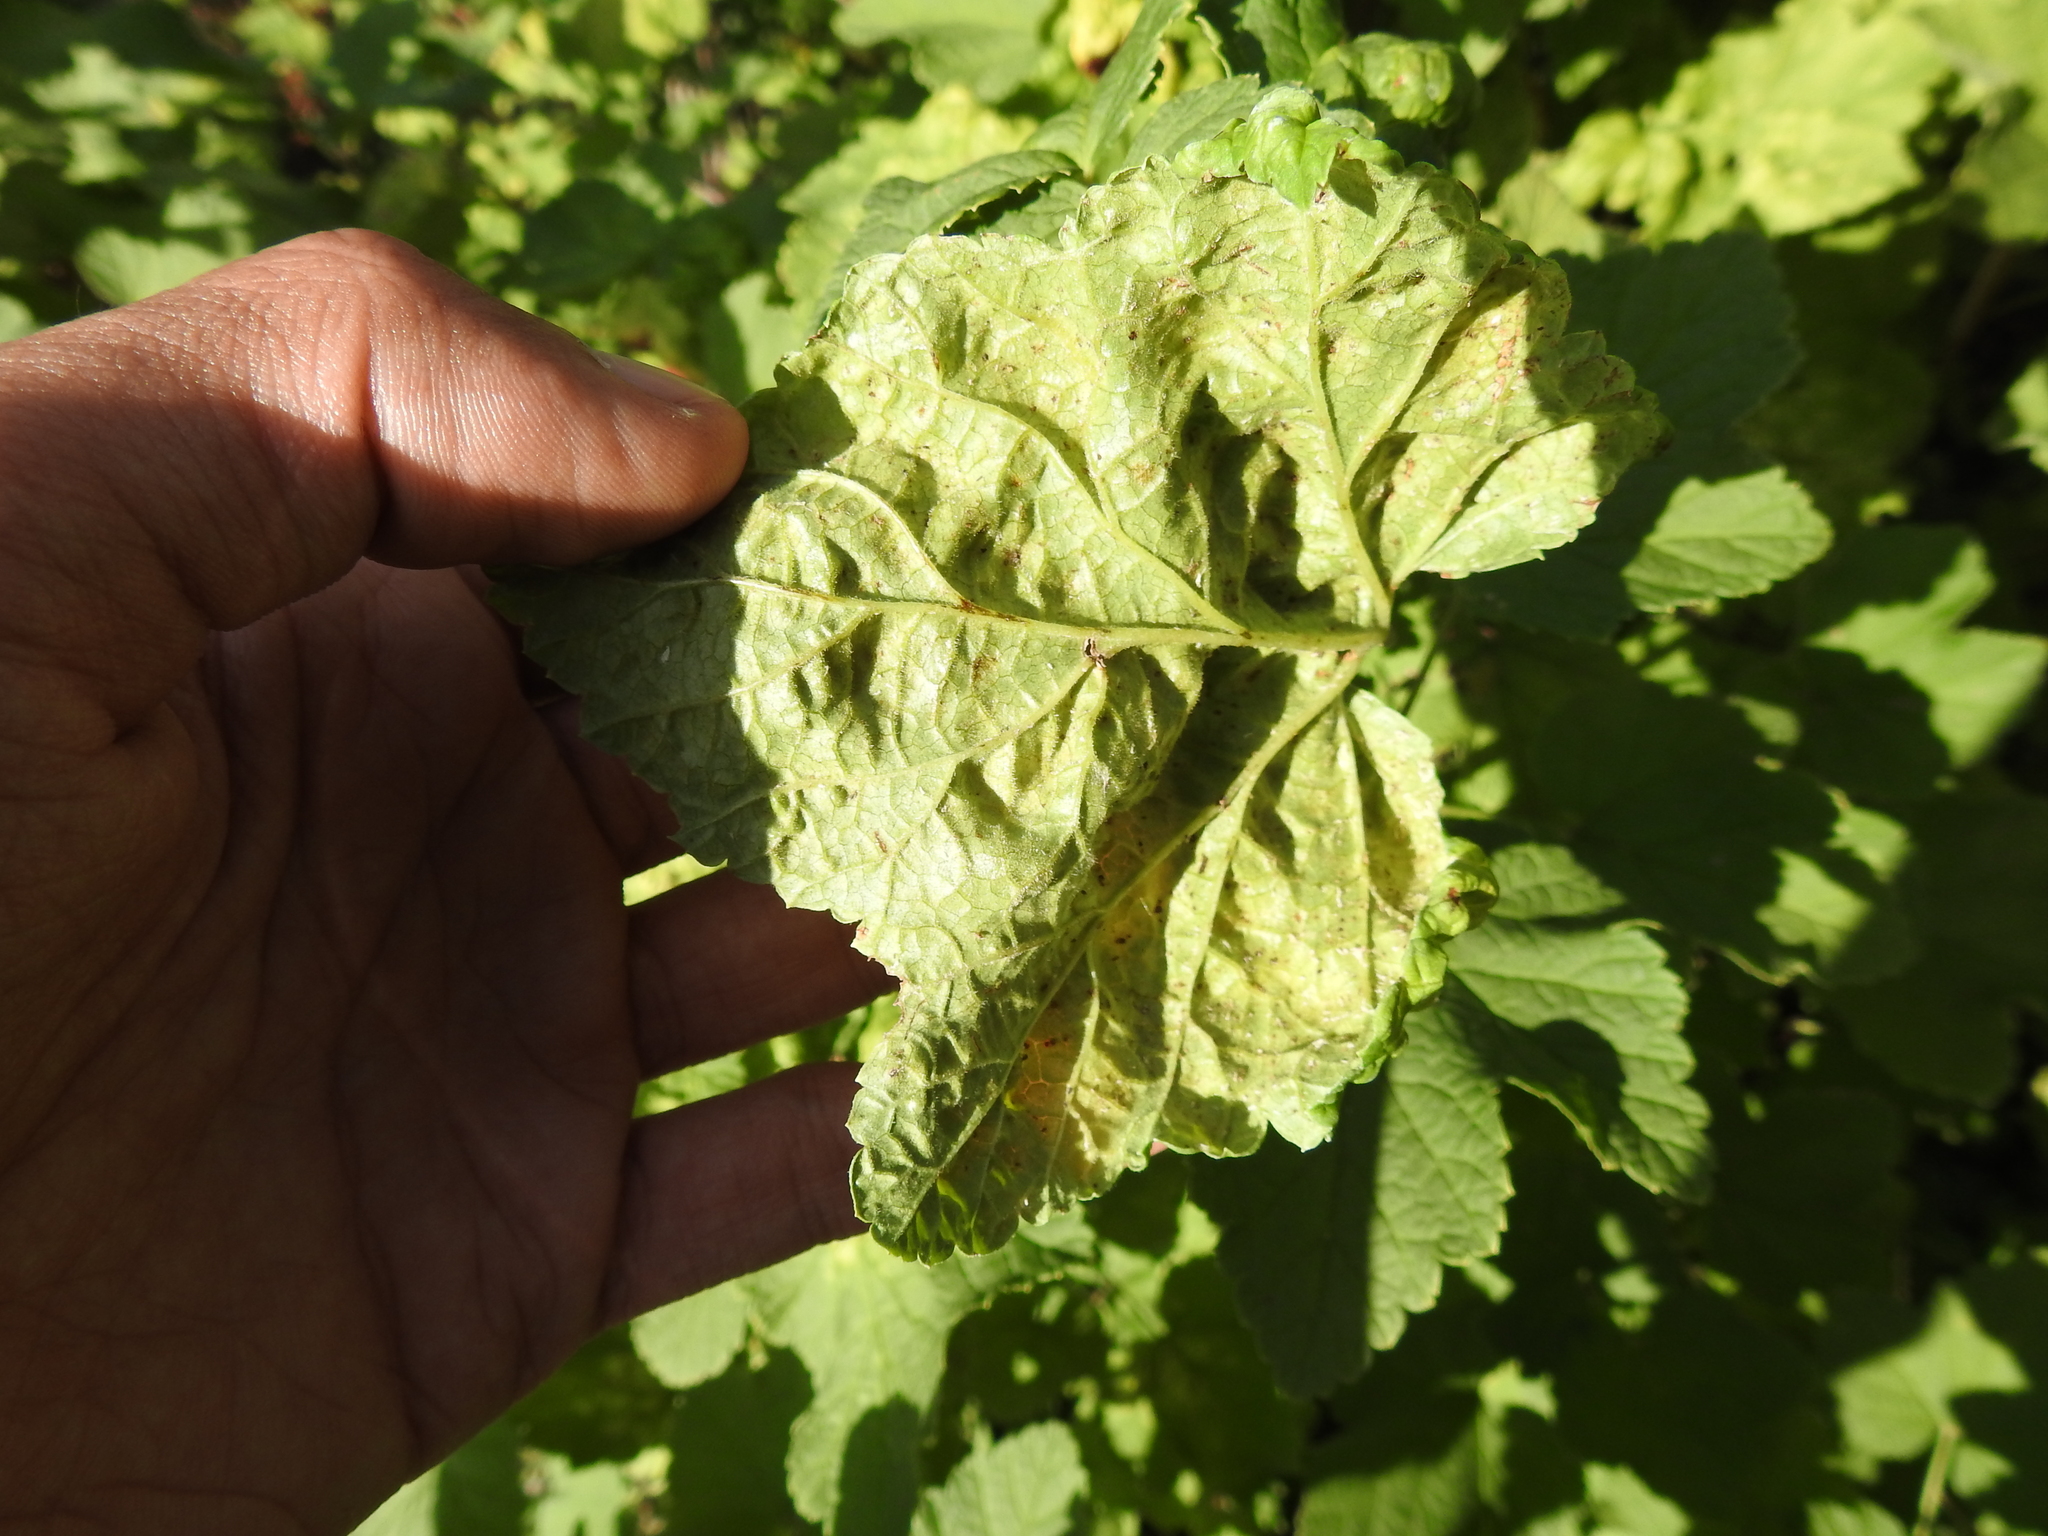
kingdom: Animalia
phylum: Arthropoda
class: Insecta
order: Hemiptera
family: Aphididae
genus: Cryptomyzus
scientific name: Cryptomyzus ribis
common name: Currant aphid
